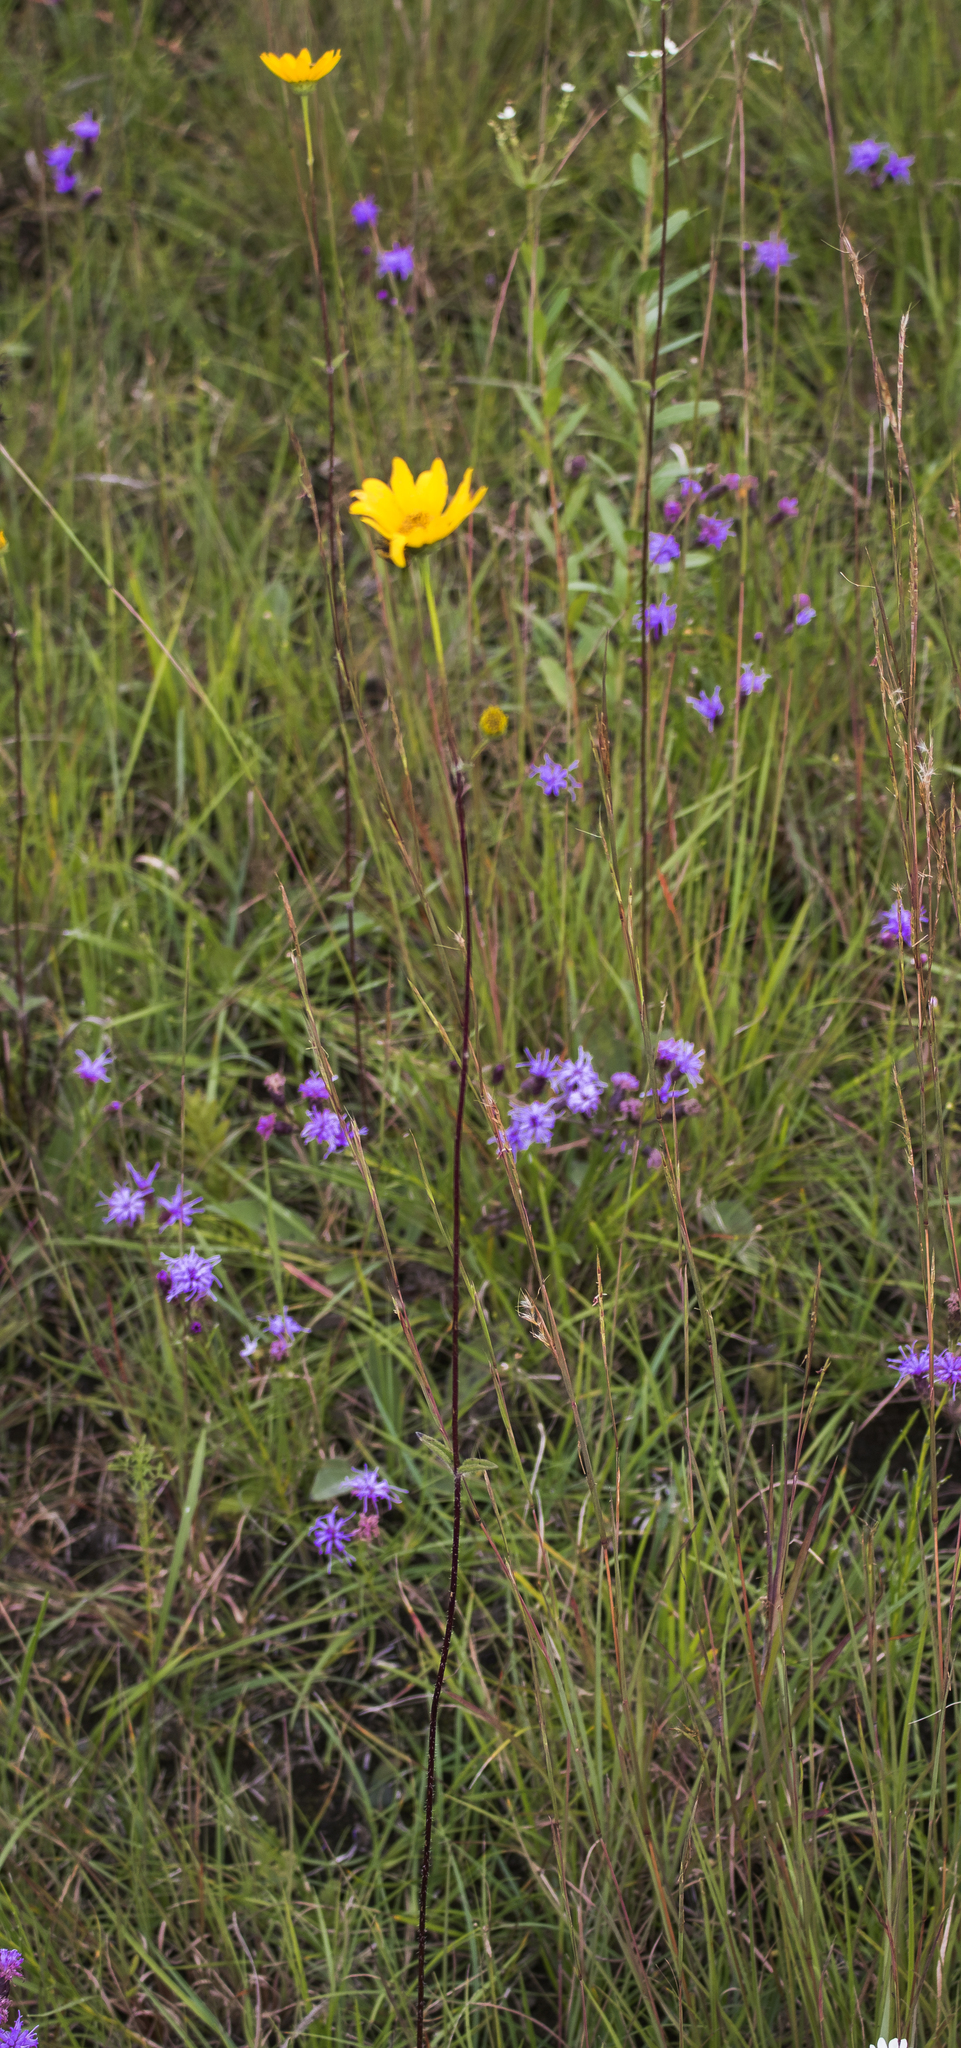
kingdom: Plantae
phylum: Tracheophyta
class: Magnoliopsida
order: Asterales
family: Asteraceae
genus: Helianthus
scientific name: Helianthus occidentalis
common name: Western sunflower
